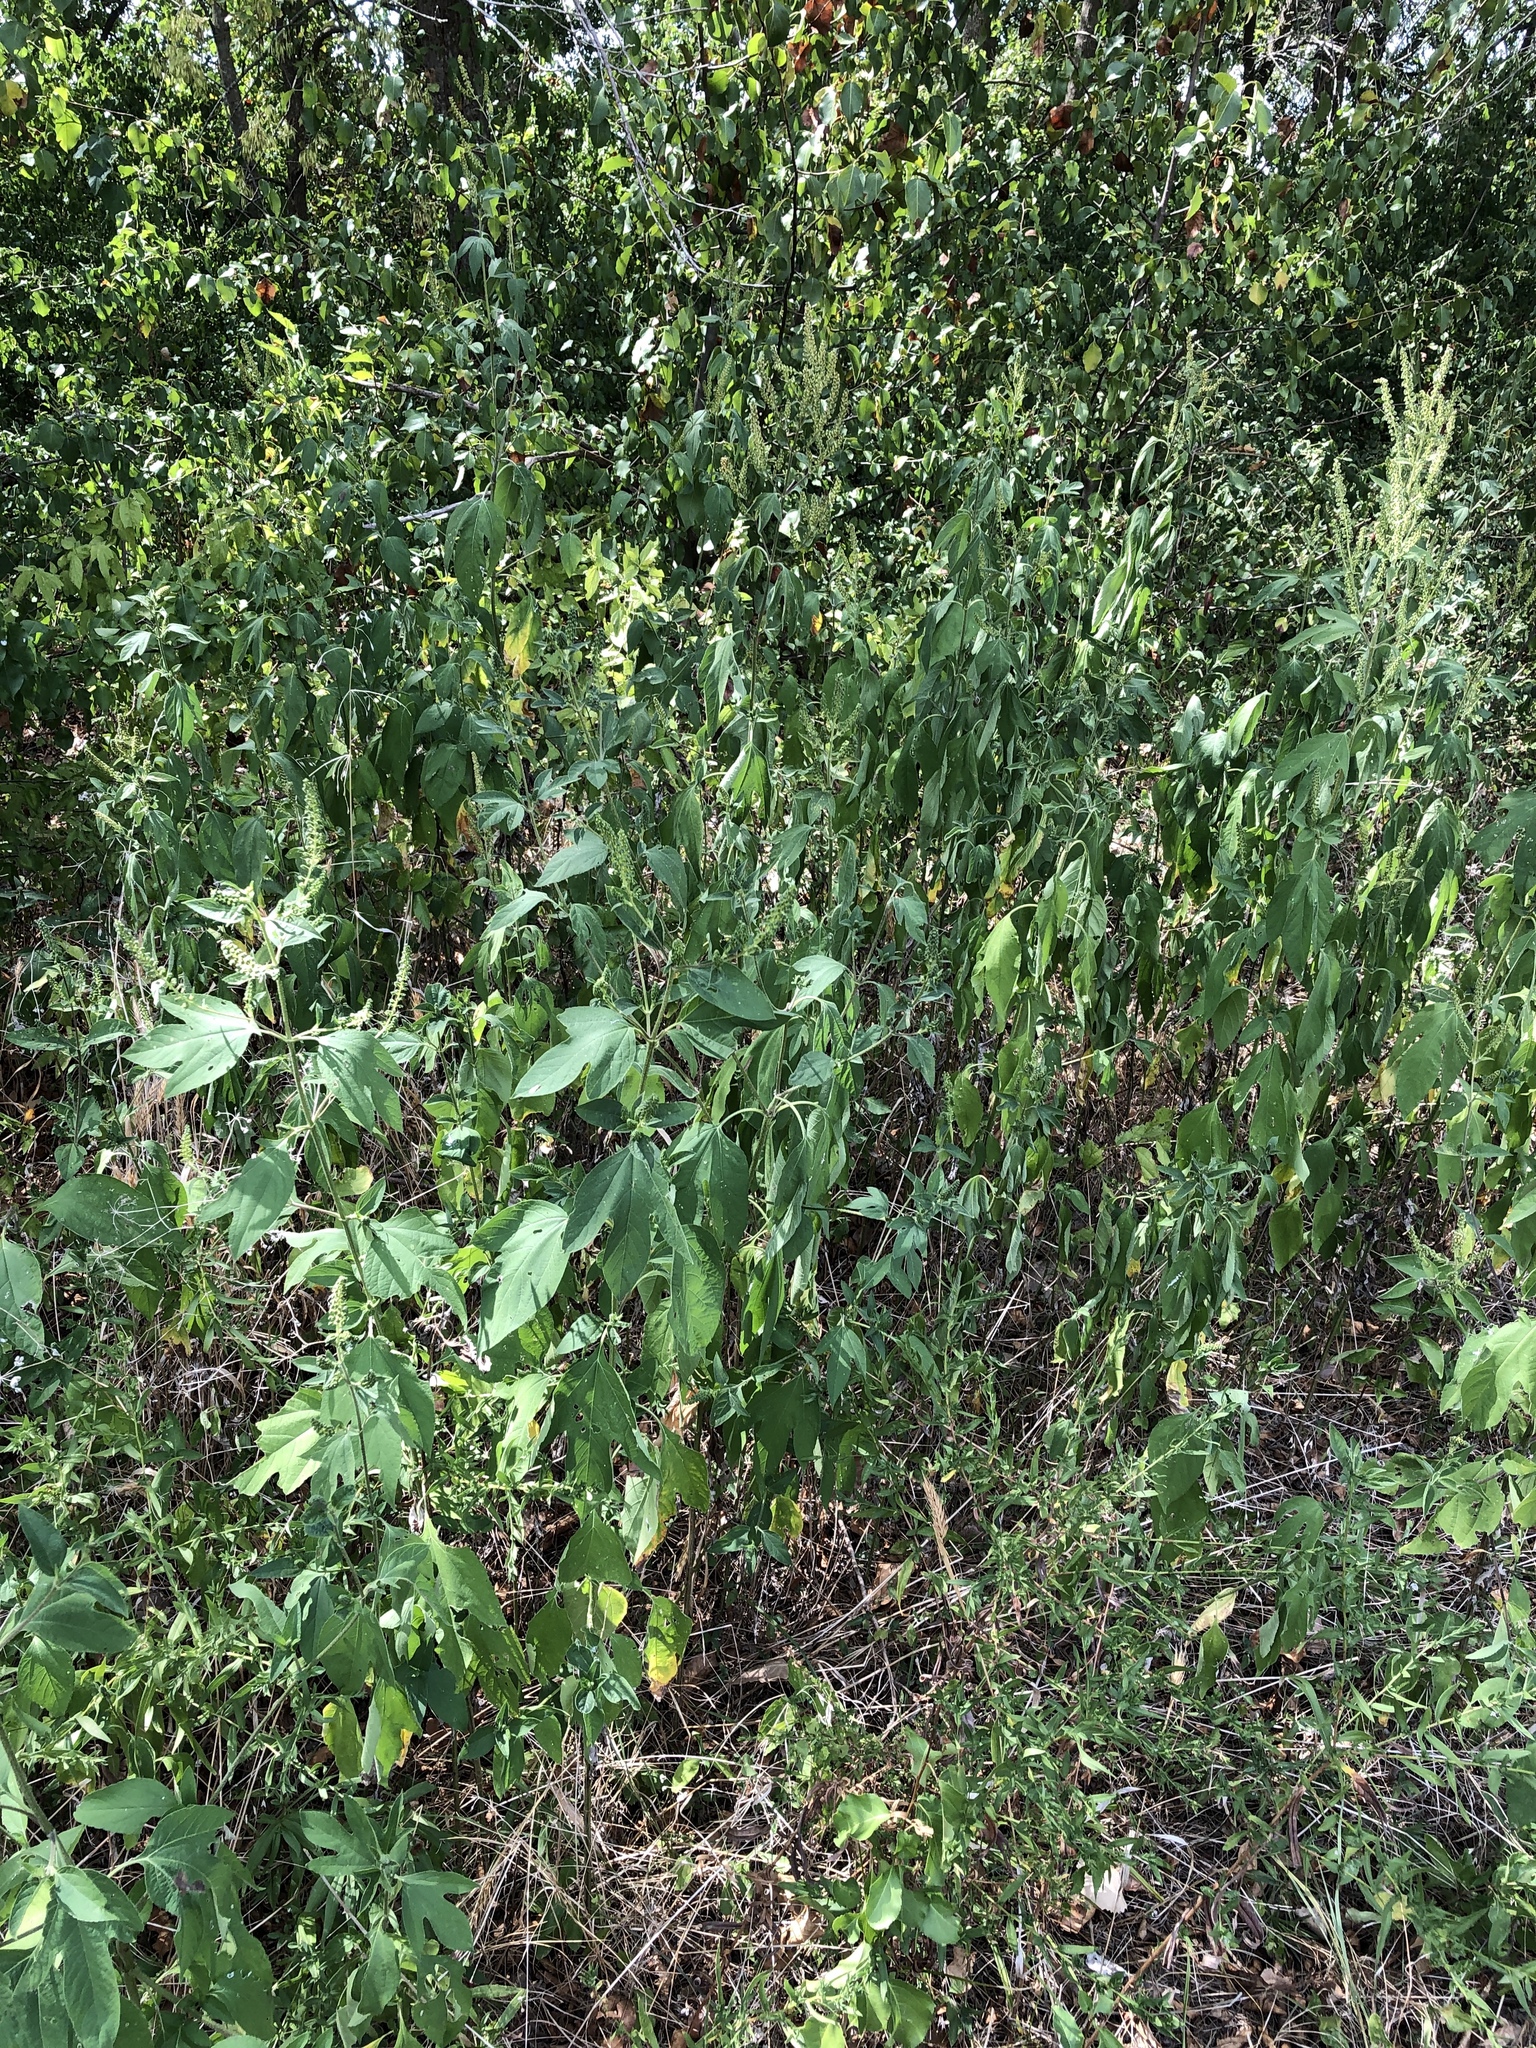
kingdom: Plantae
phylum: Tracheophyta
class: Magnoliopsida
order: Asterales
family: Asteraceae
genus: Ambrosia
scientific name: Ambrosia trifida
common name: Giant ragweed
